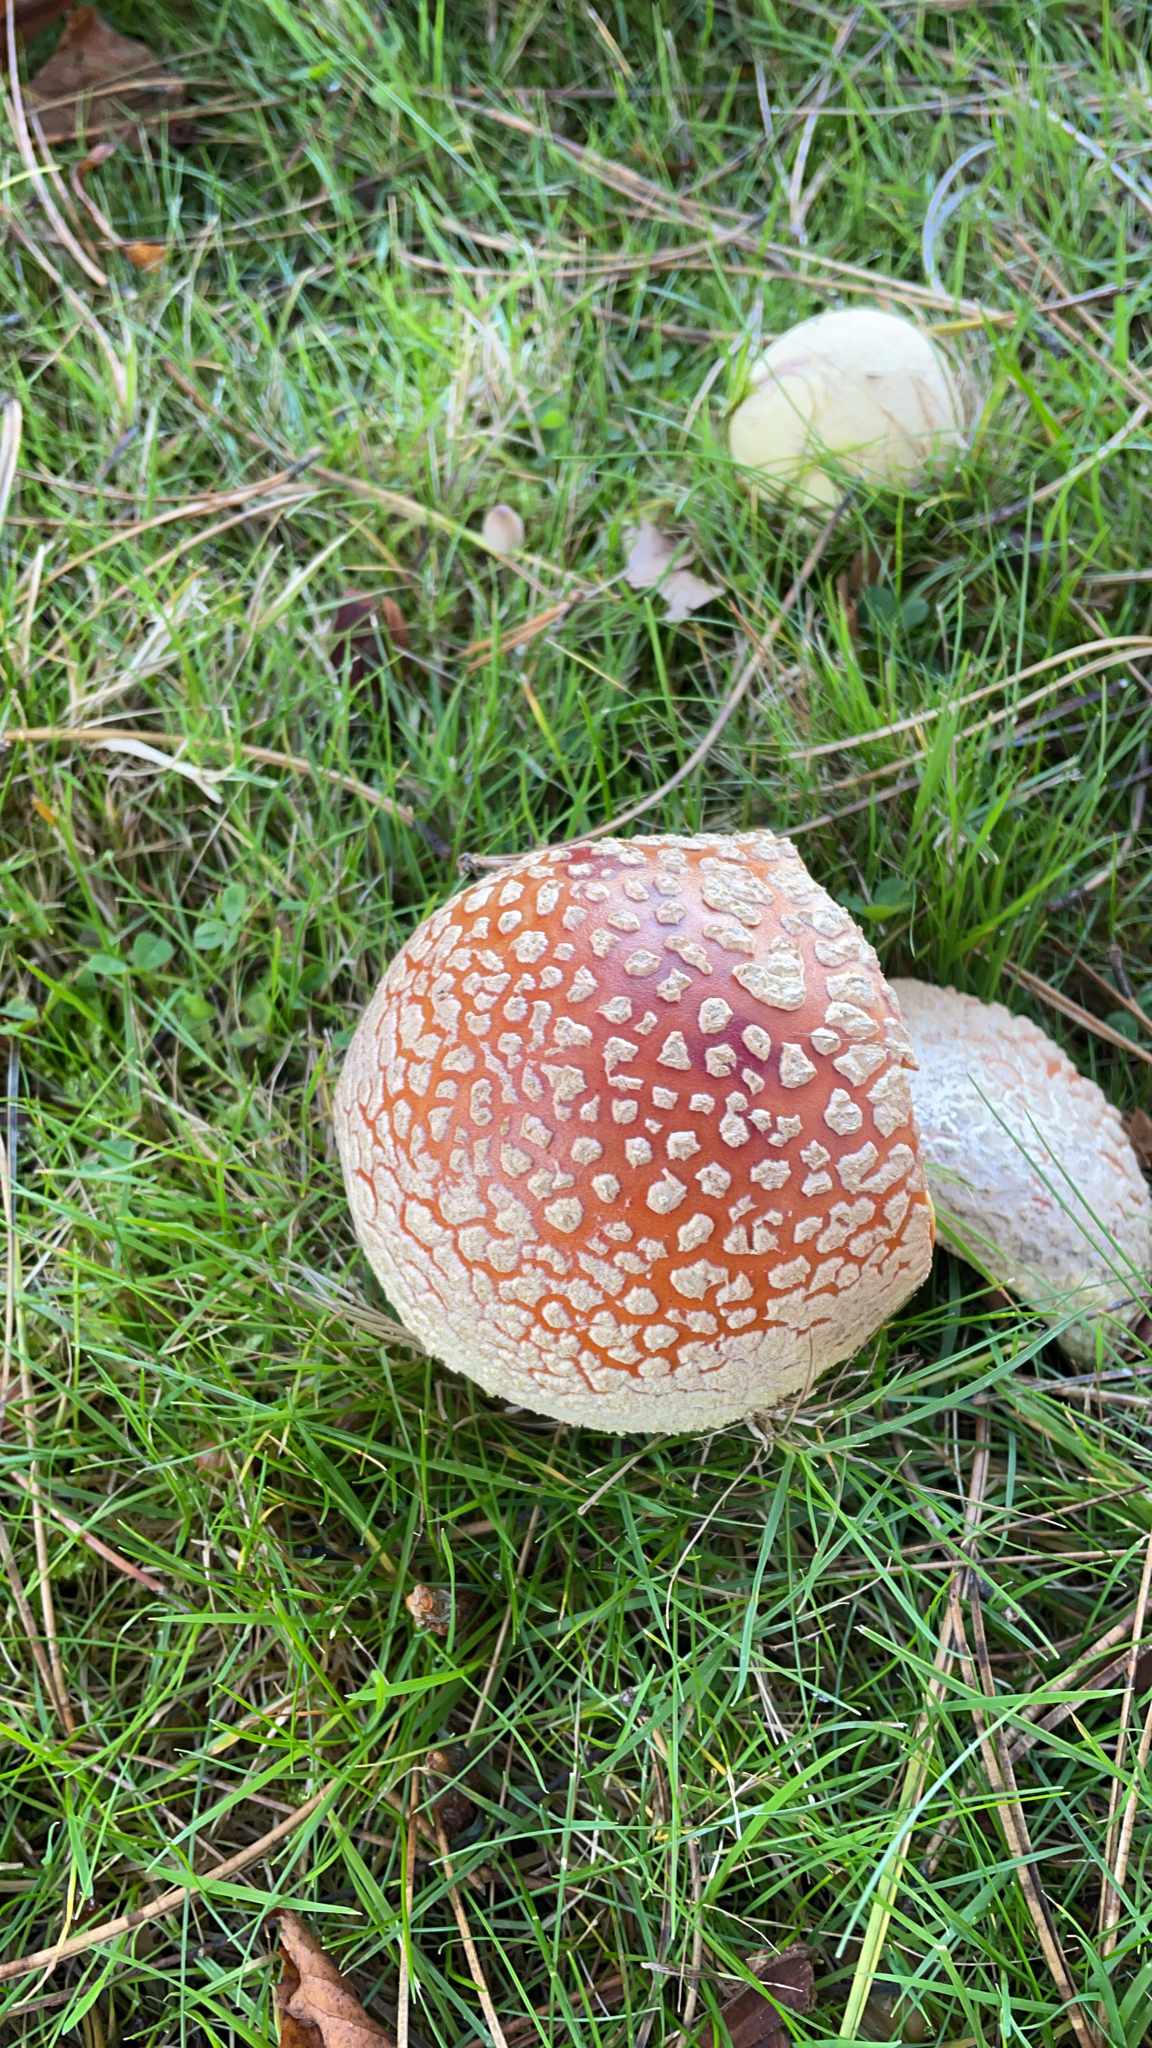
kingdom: Fungi
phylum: Basidiomycota
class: Agaricomycetes
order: Agaricales
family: Amanitaceae
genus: Amanita
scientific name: Amanita muscaria
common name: Fly agaric
